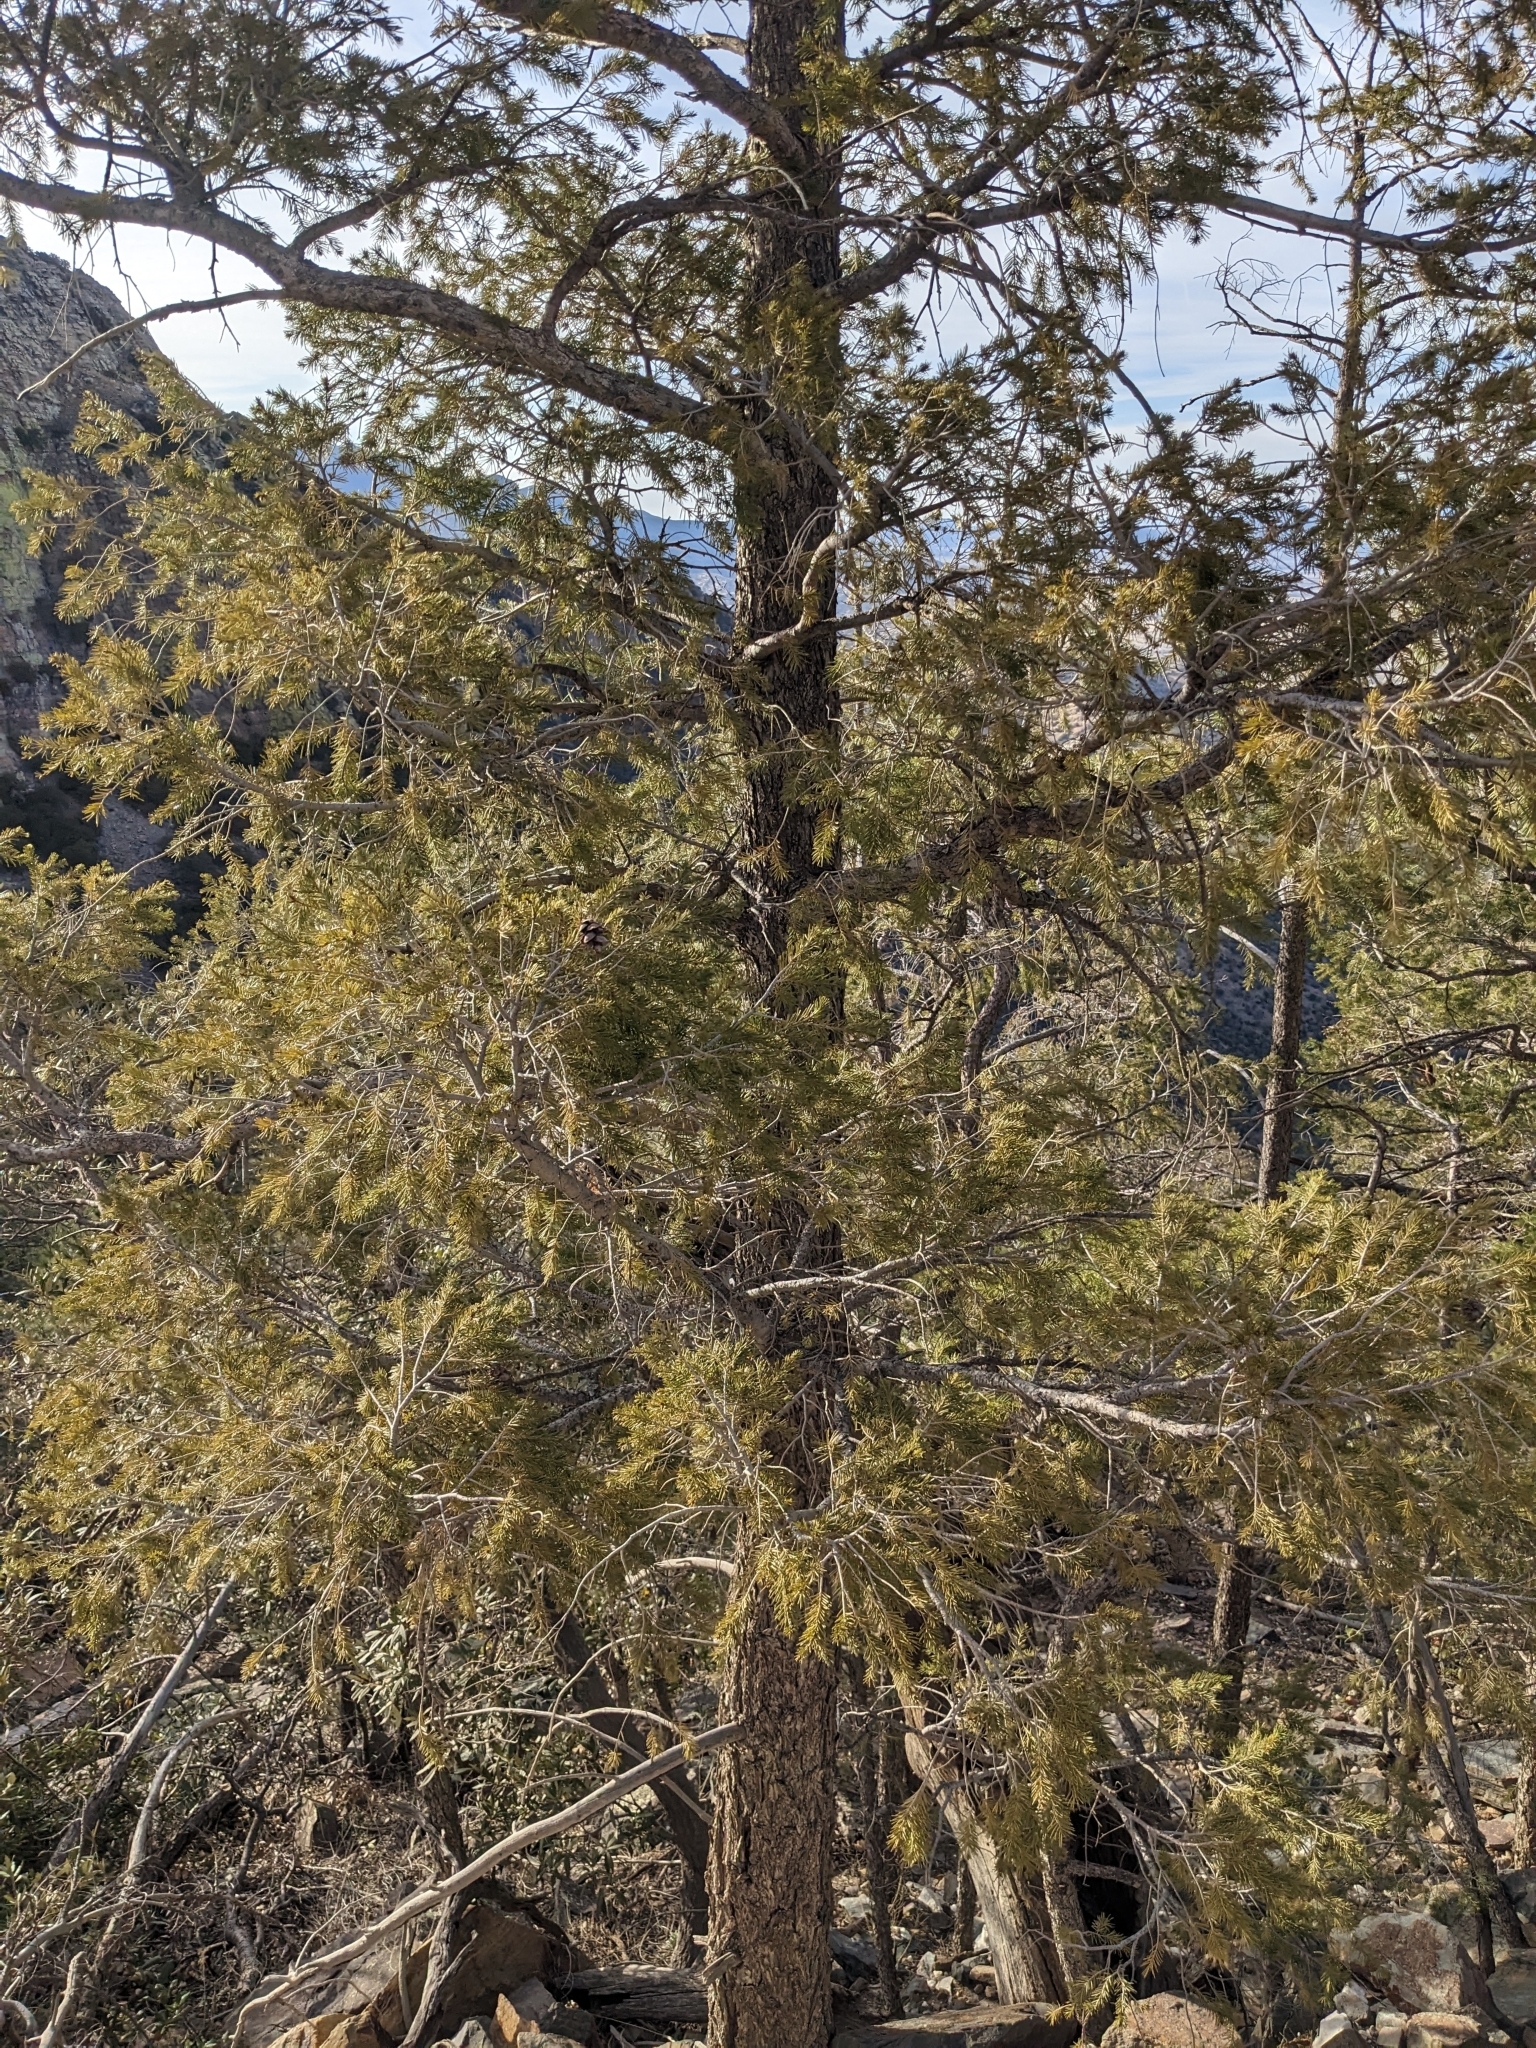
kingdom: Plantae
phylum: Tracheophyta
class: Pinopsida
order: Pinales
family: Pinaceae
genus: Pseudotsuga
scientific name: Pseudotsuga menziesii
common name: Douglas fir
